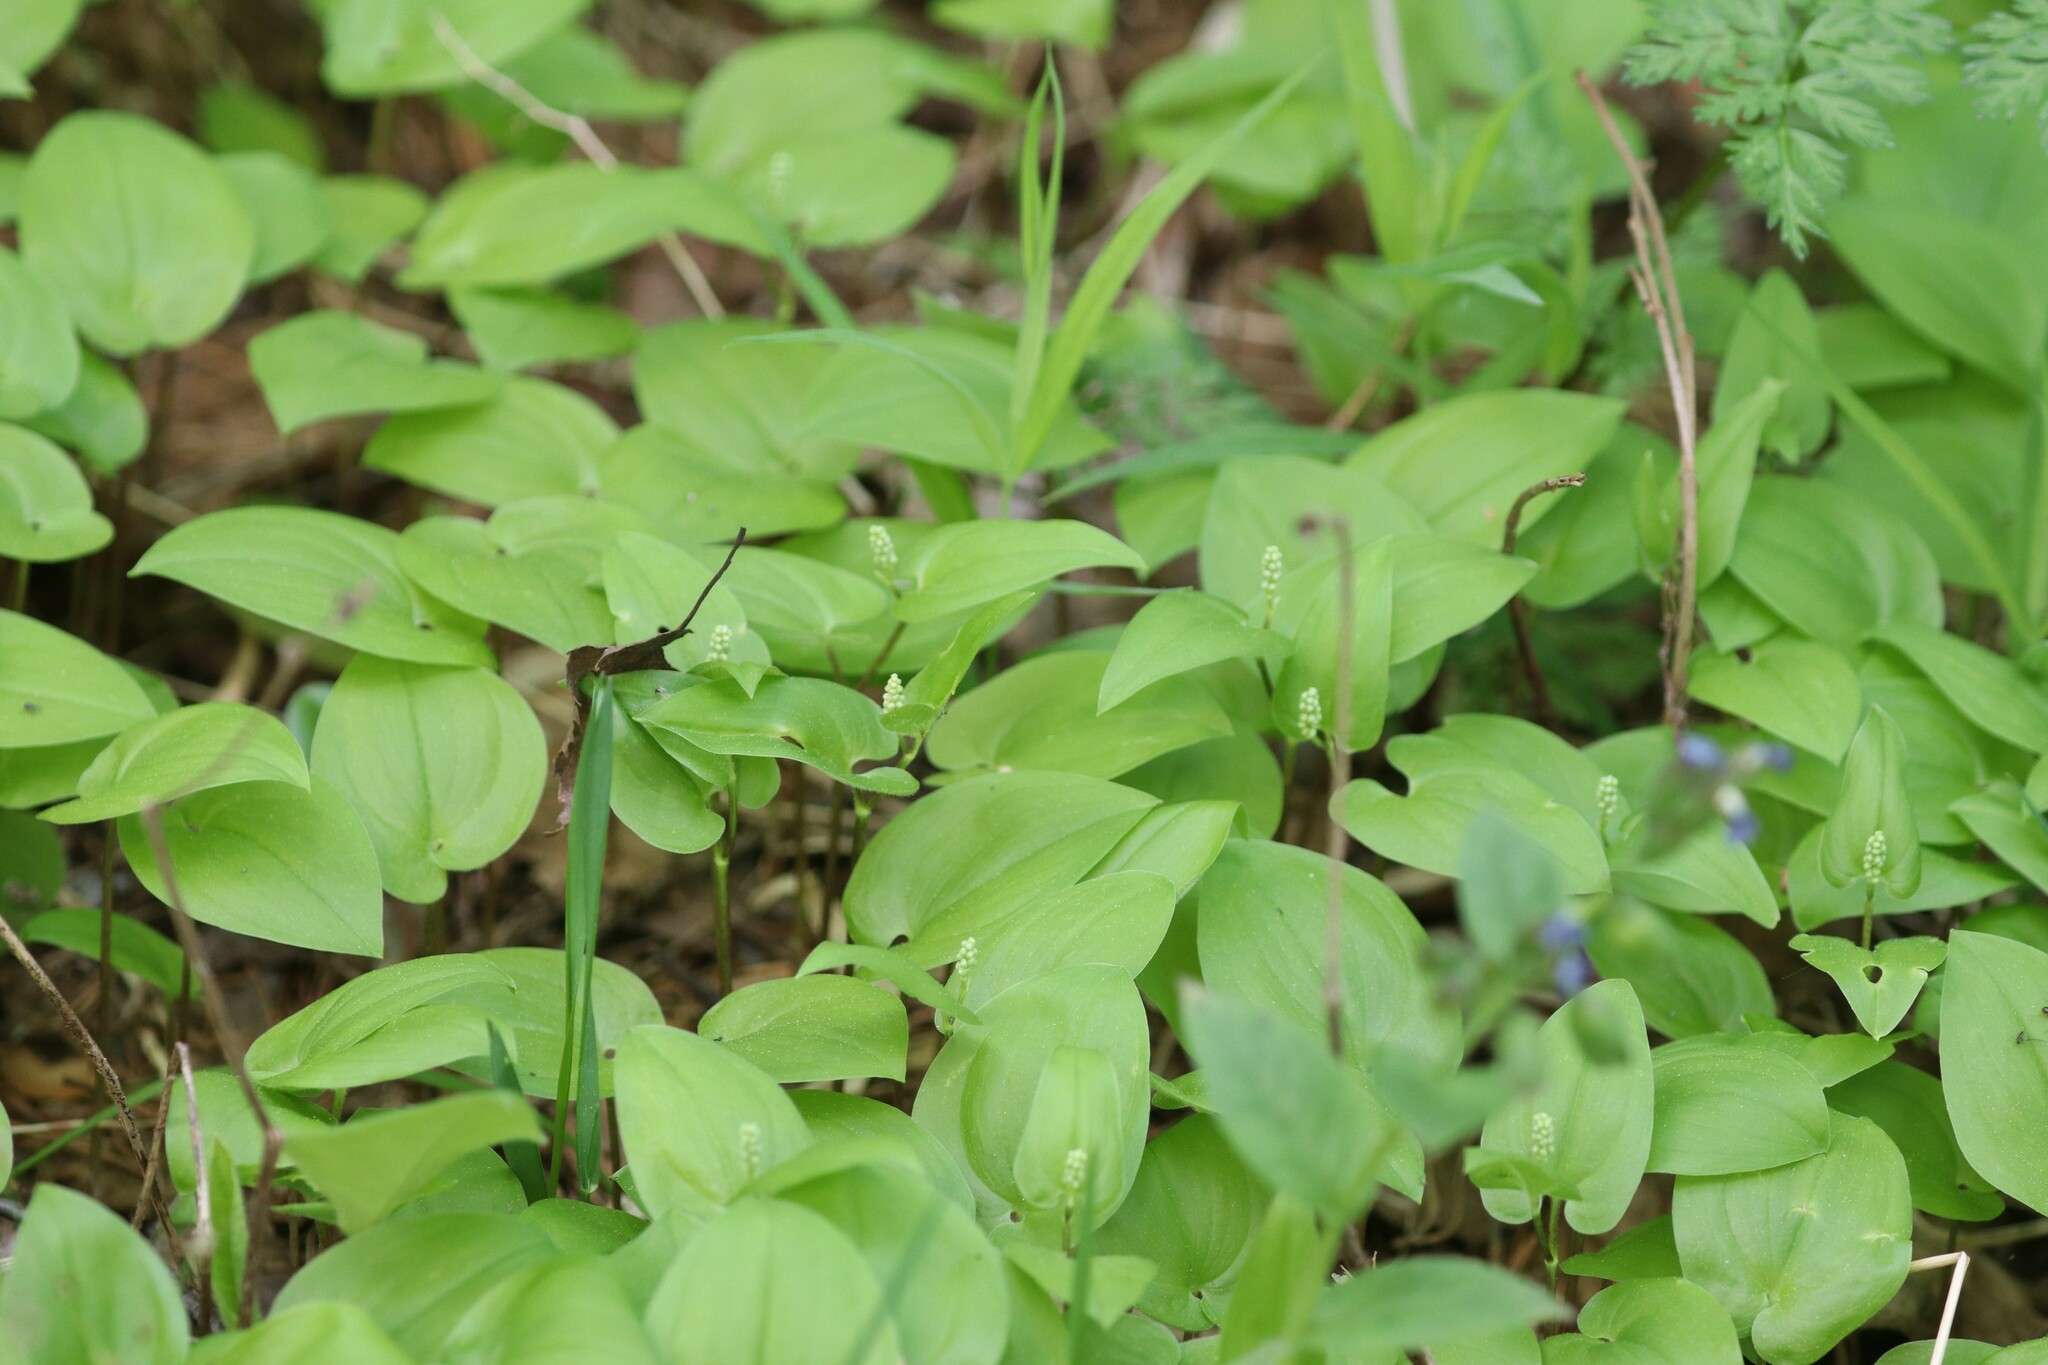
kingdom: Plantae
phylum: Tracheophyta
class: Liliopsida
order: Asparagales
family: Asparagaceae
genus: Maianthemum
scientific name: Maianthemum bifolium
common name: May lily
